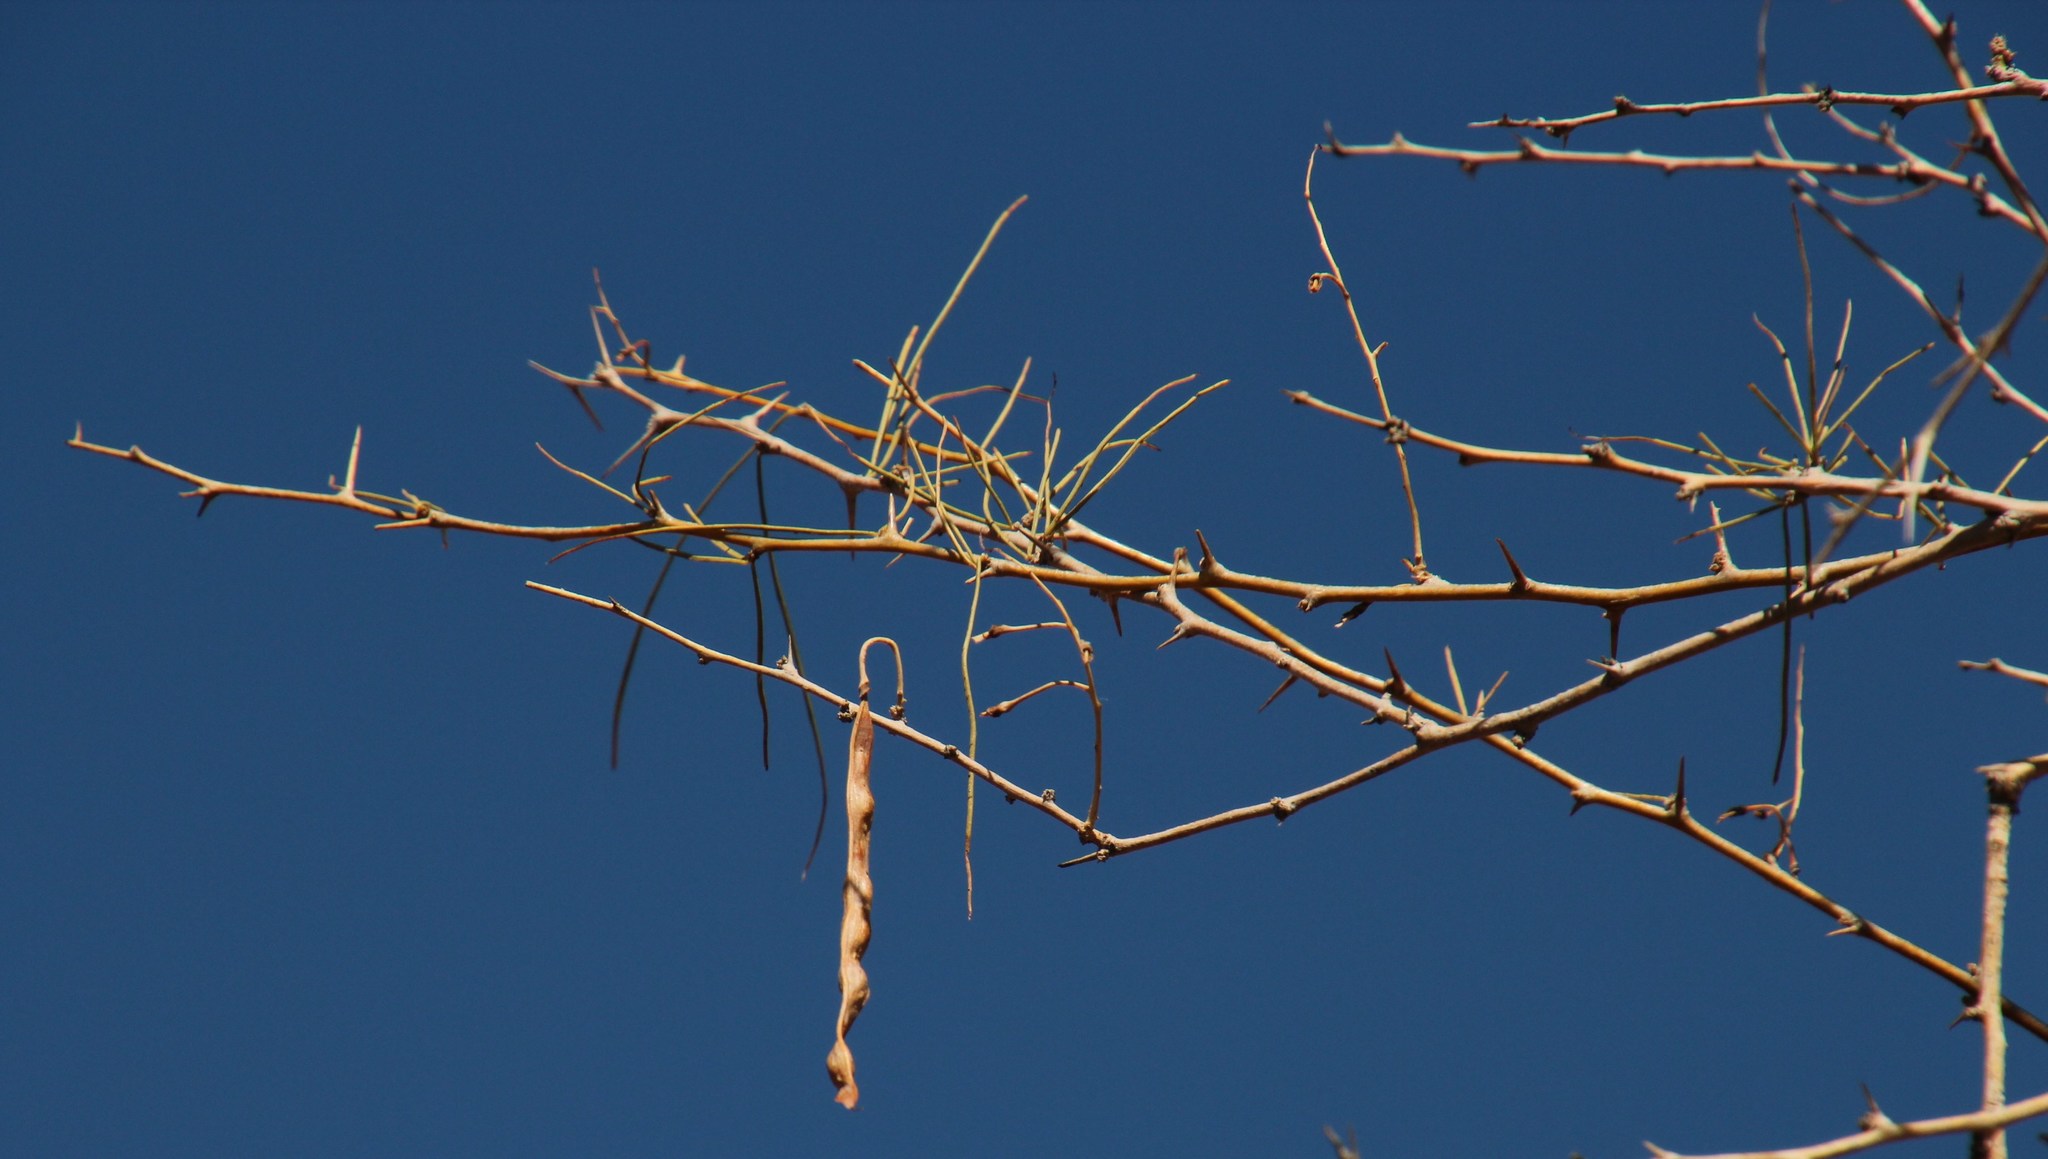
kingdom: Plantae
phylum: Tracheophyta
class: Magnoliopsida
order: Fabales
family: Fabaceae
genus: Parkinsonia
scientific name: Parkinsonia africana
